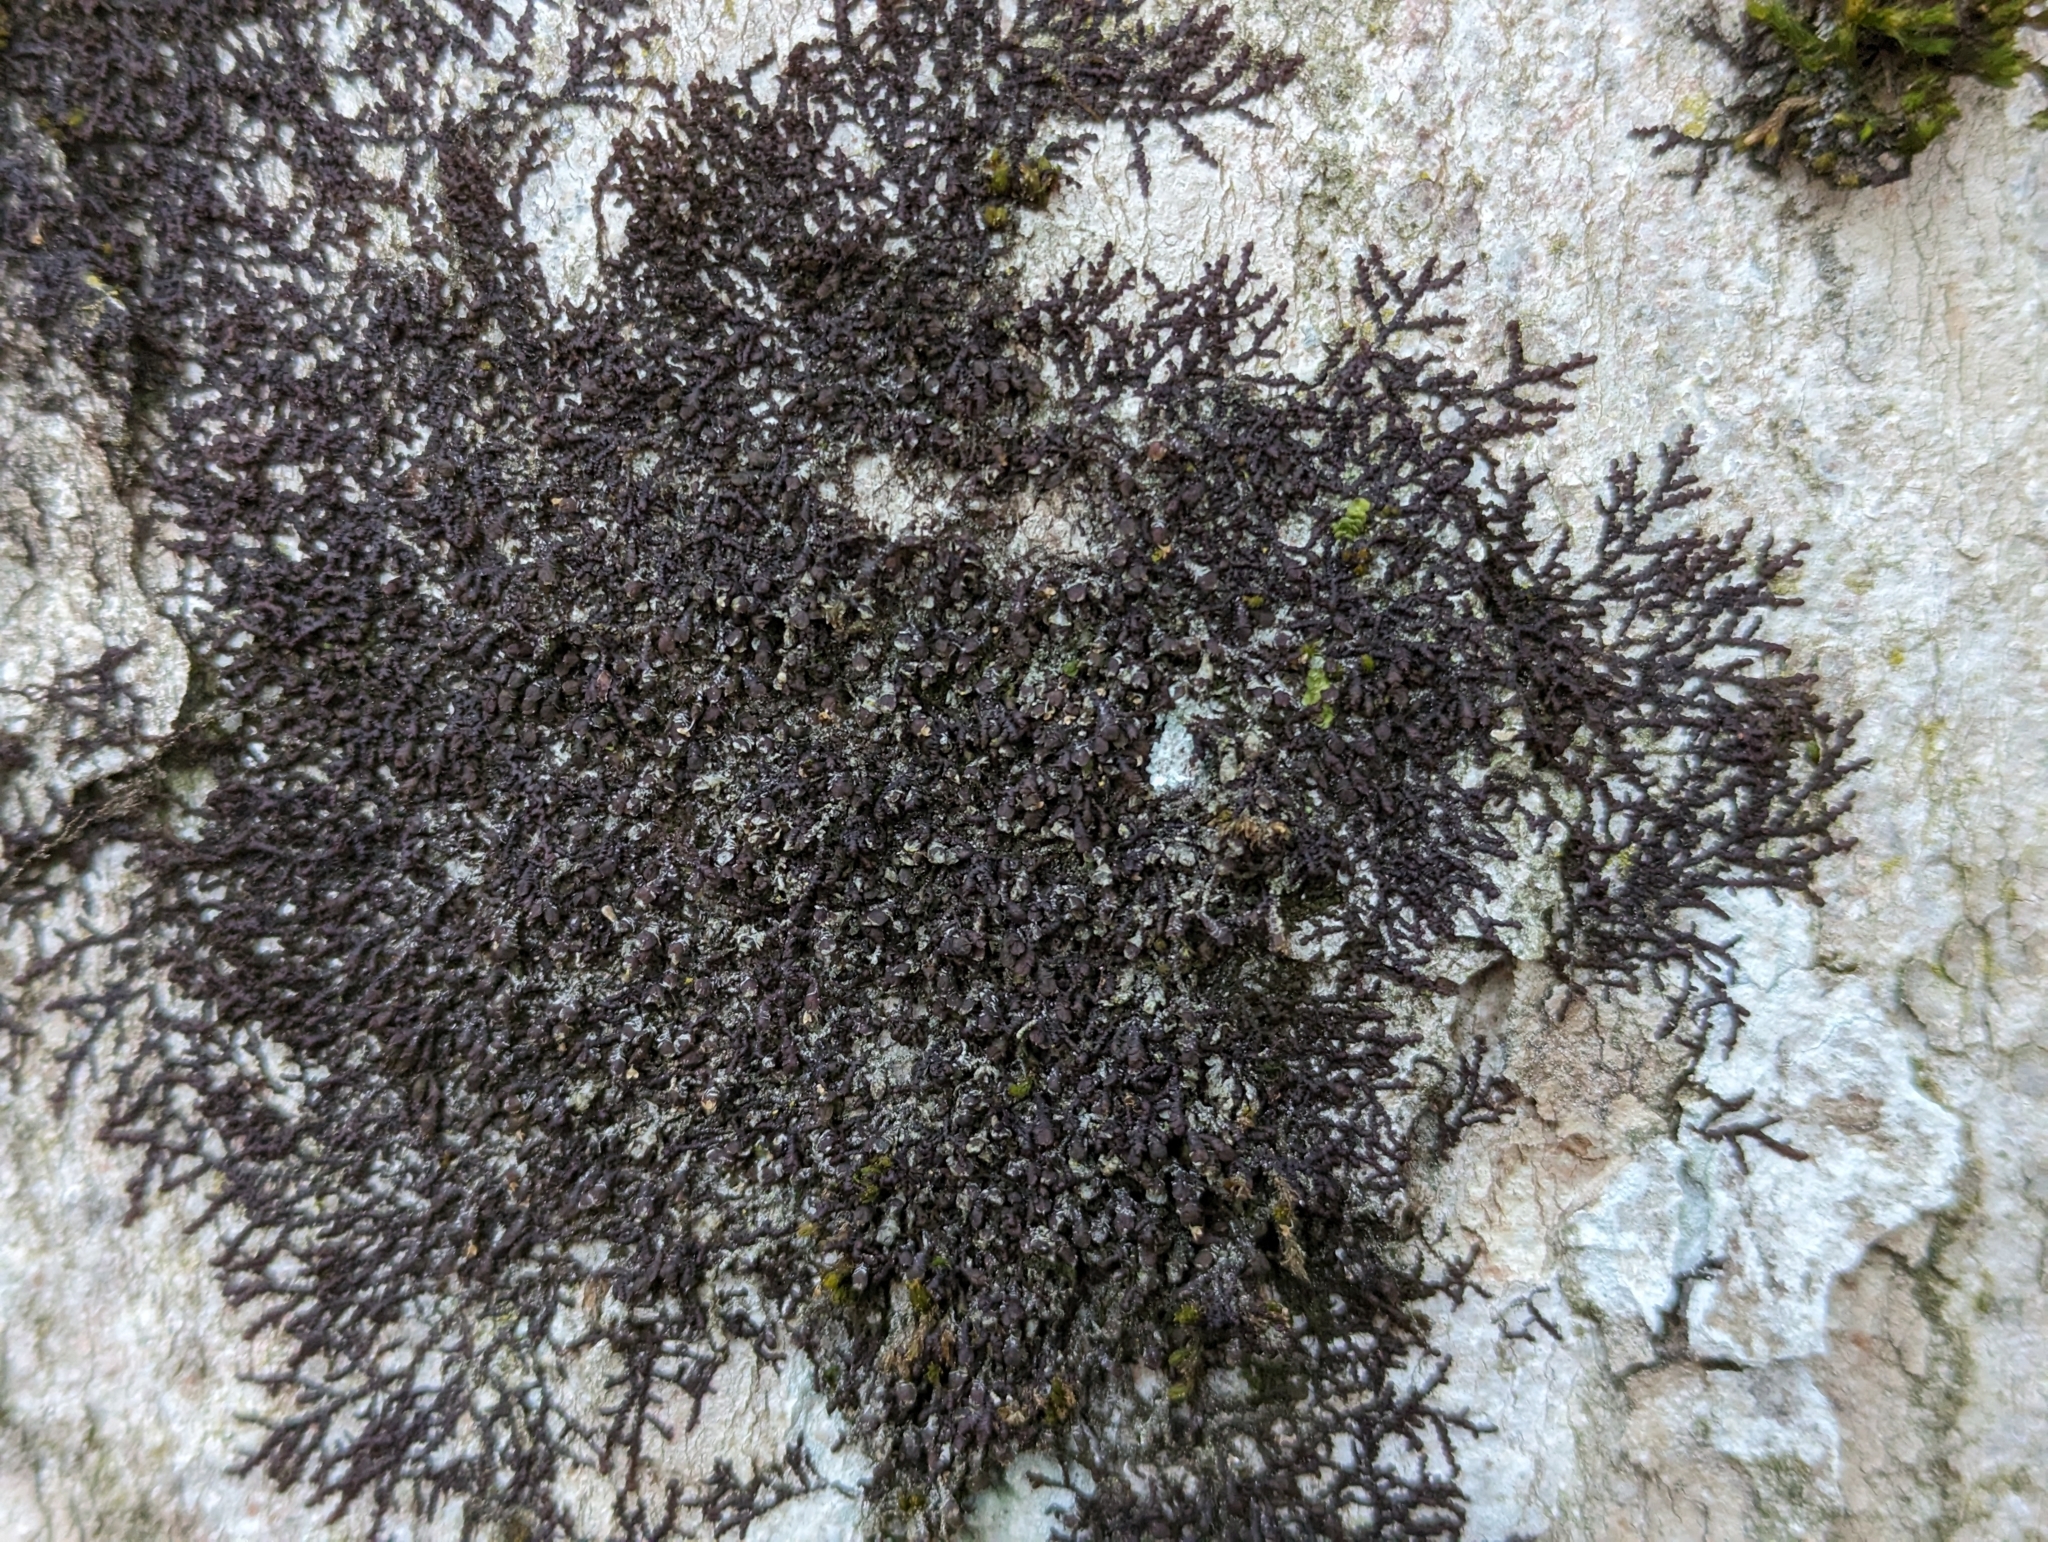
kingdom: Plantae
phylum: Marchantiophyta
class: Jungermanniopsida
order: Porellales
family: Frullaniaceae
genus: Frullania
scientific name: Frullania dilatata
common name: Dilated scalewort
